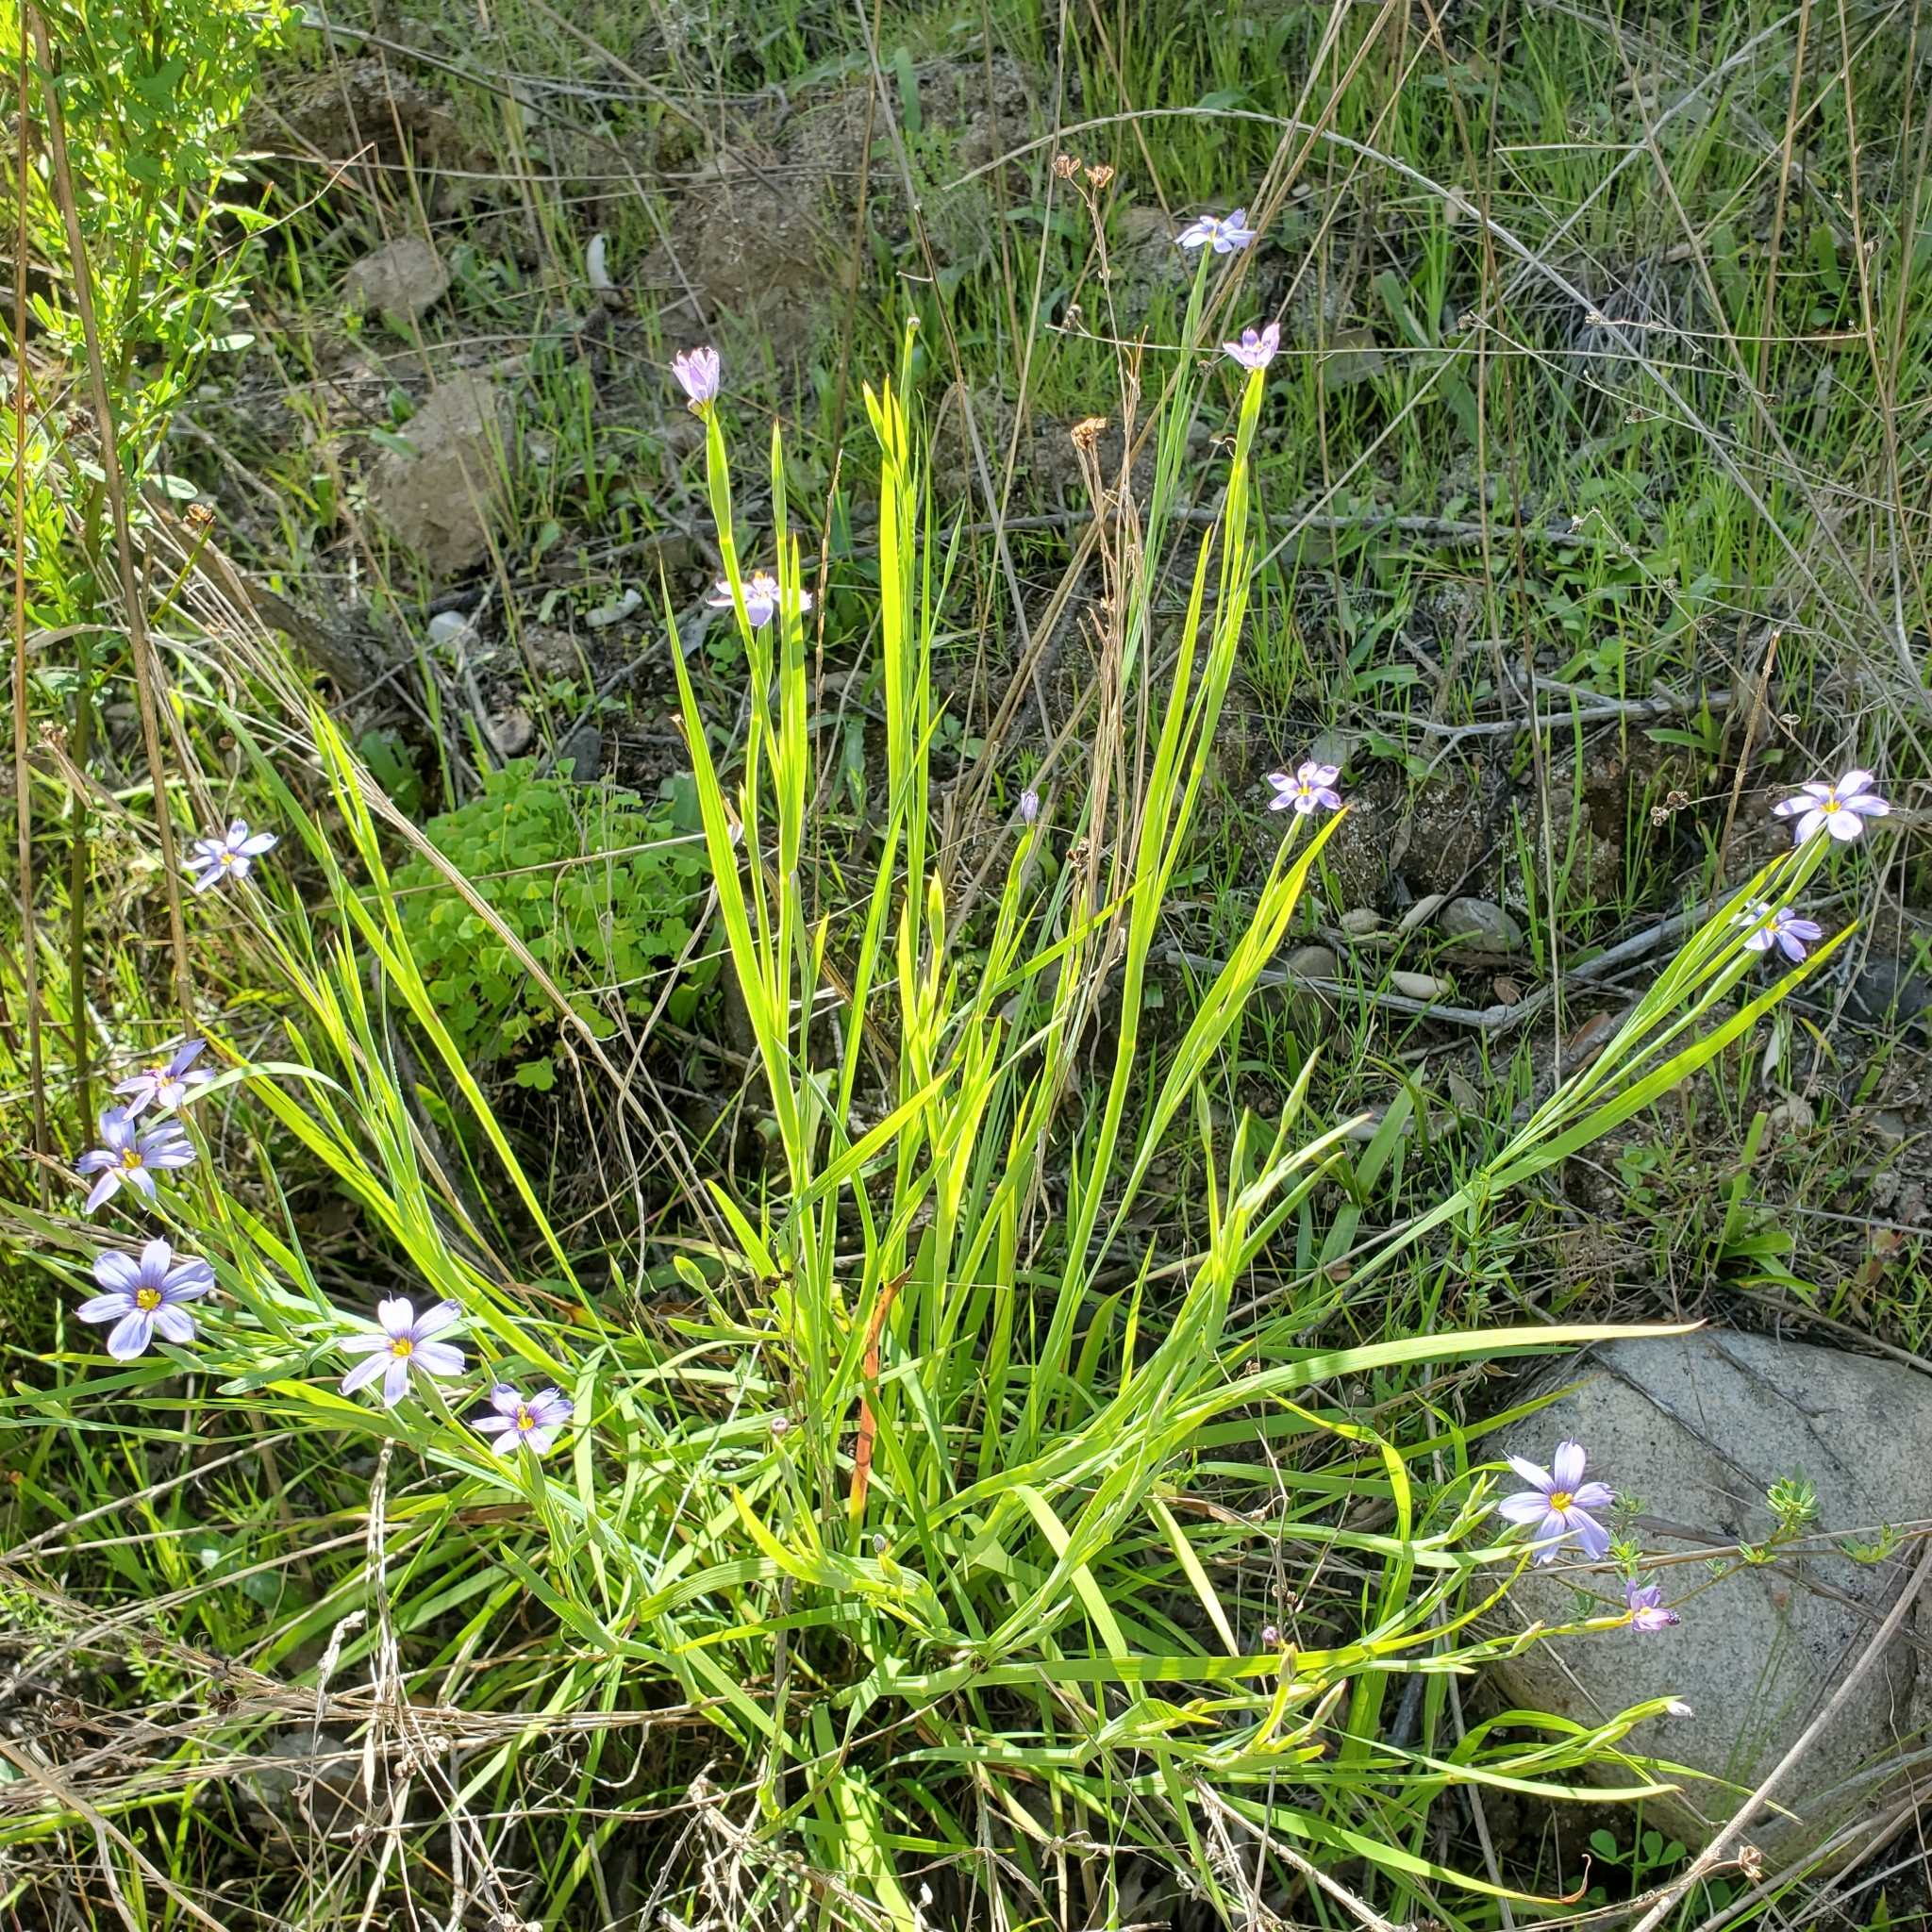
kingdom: Plantae
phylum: Tracheophyta
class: Liliopsida
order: Asparagales
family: Iridaceae
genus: Sisyrinchium
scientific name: Sisyrinchium bellum
